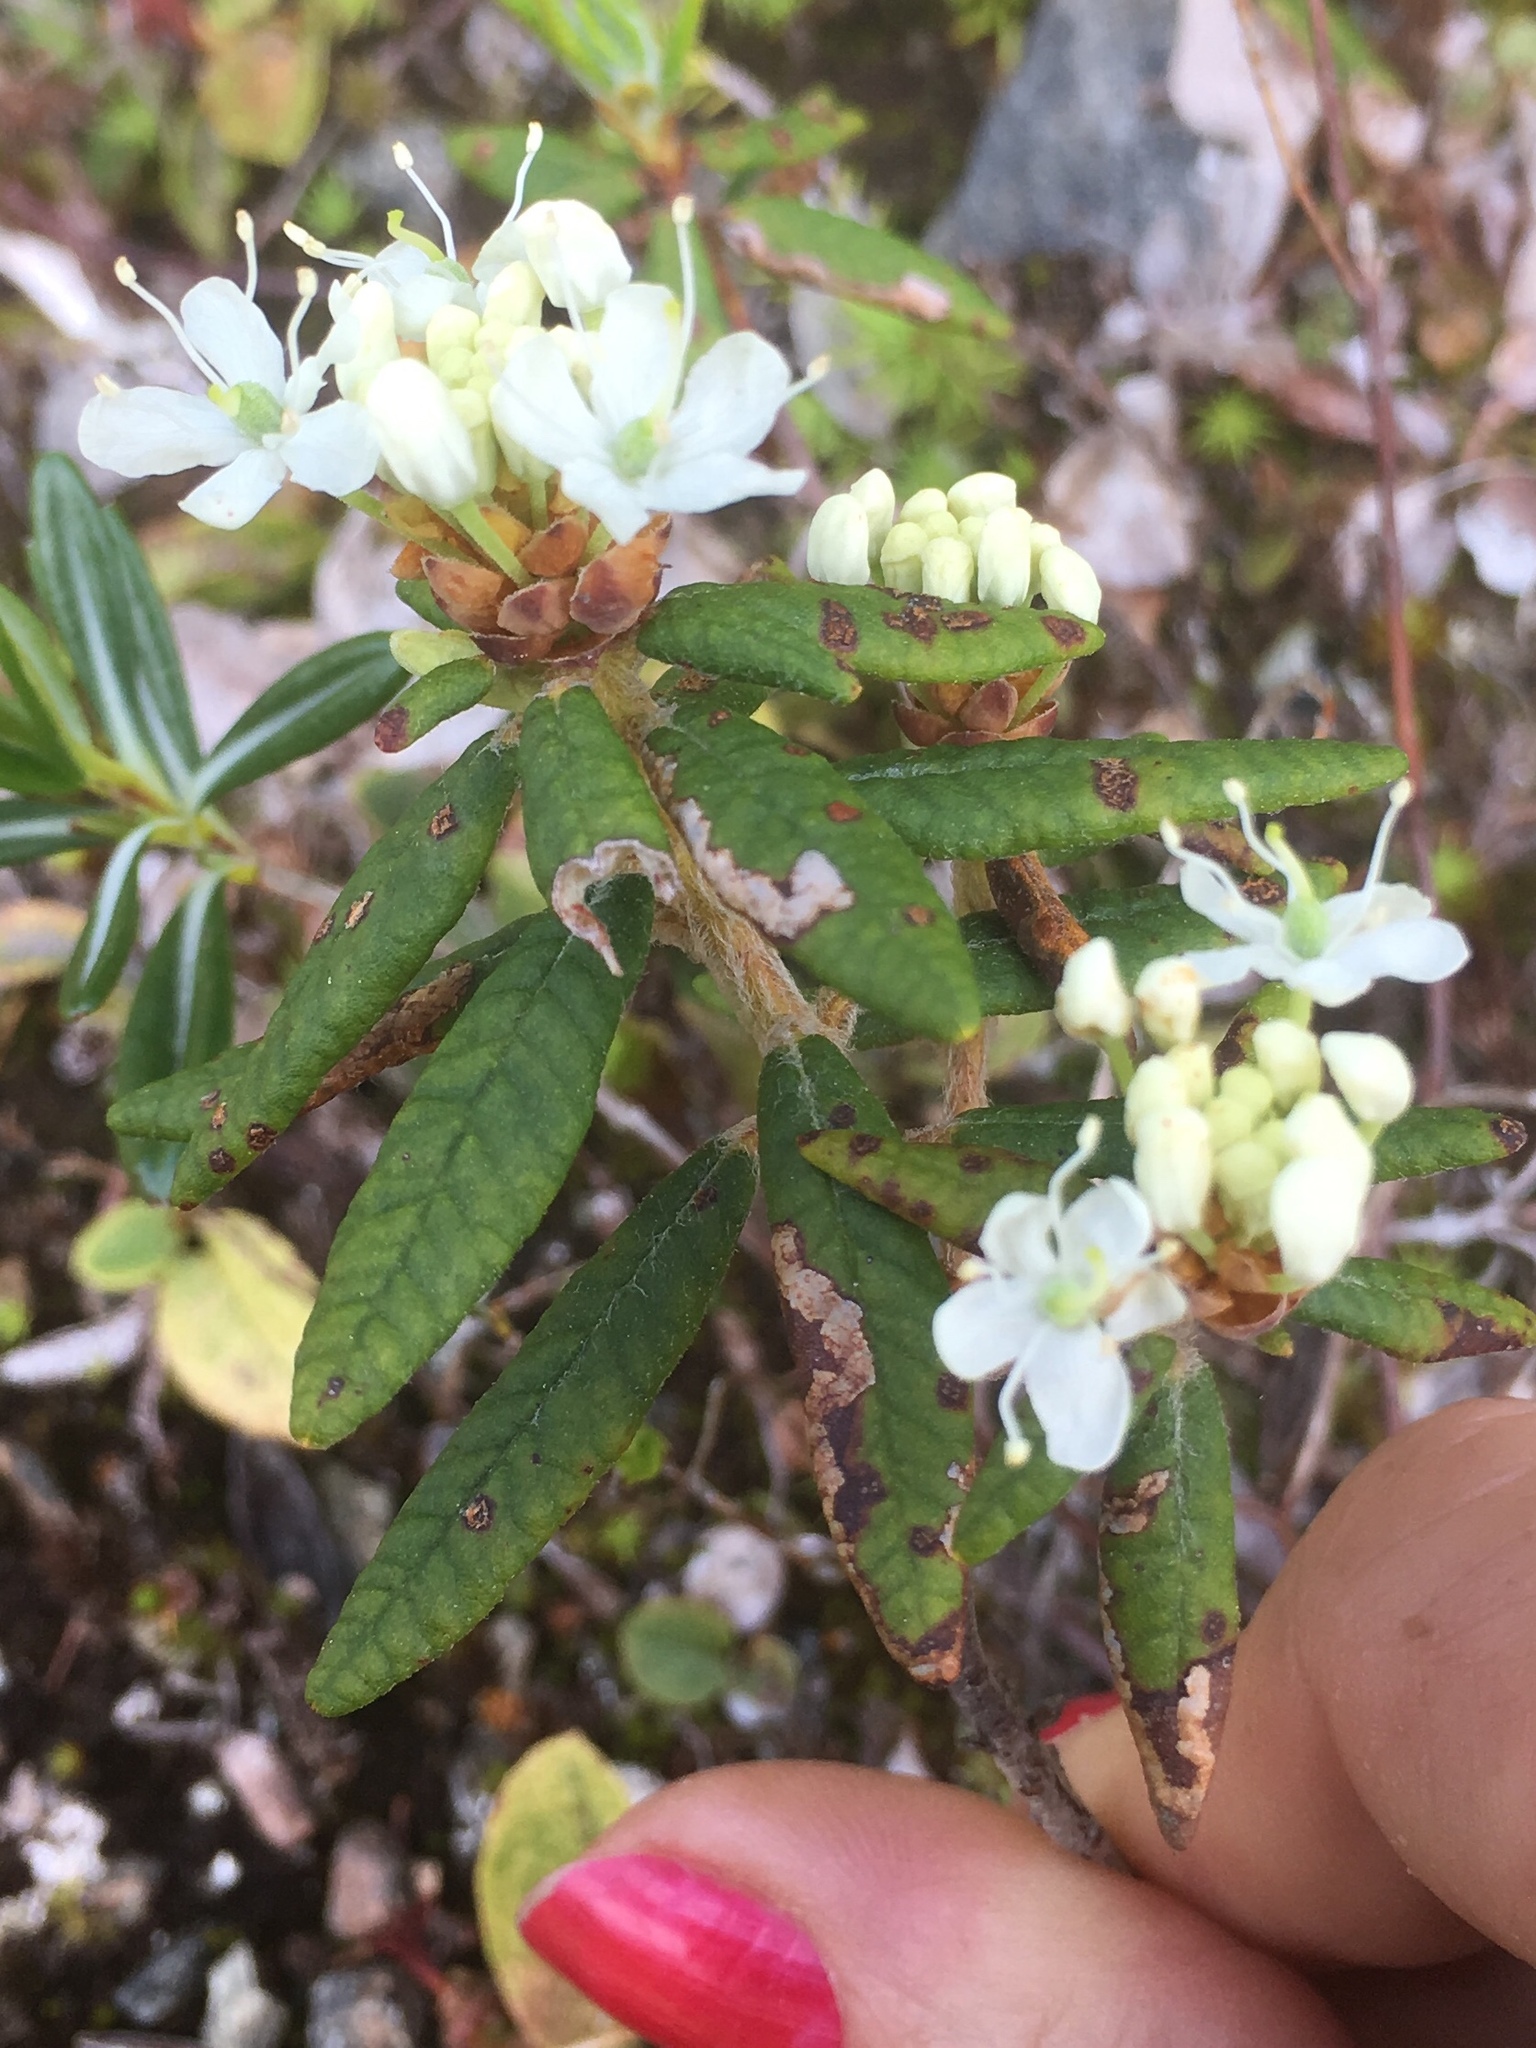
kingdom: Plantae
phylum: Tracheophyta
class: Magnoliopsida
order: Ericales
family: Ericaceae
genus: Rhododendron
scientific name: Rhododendron groenlandicum
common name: Bog labrador tea
